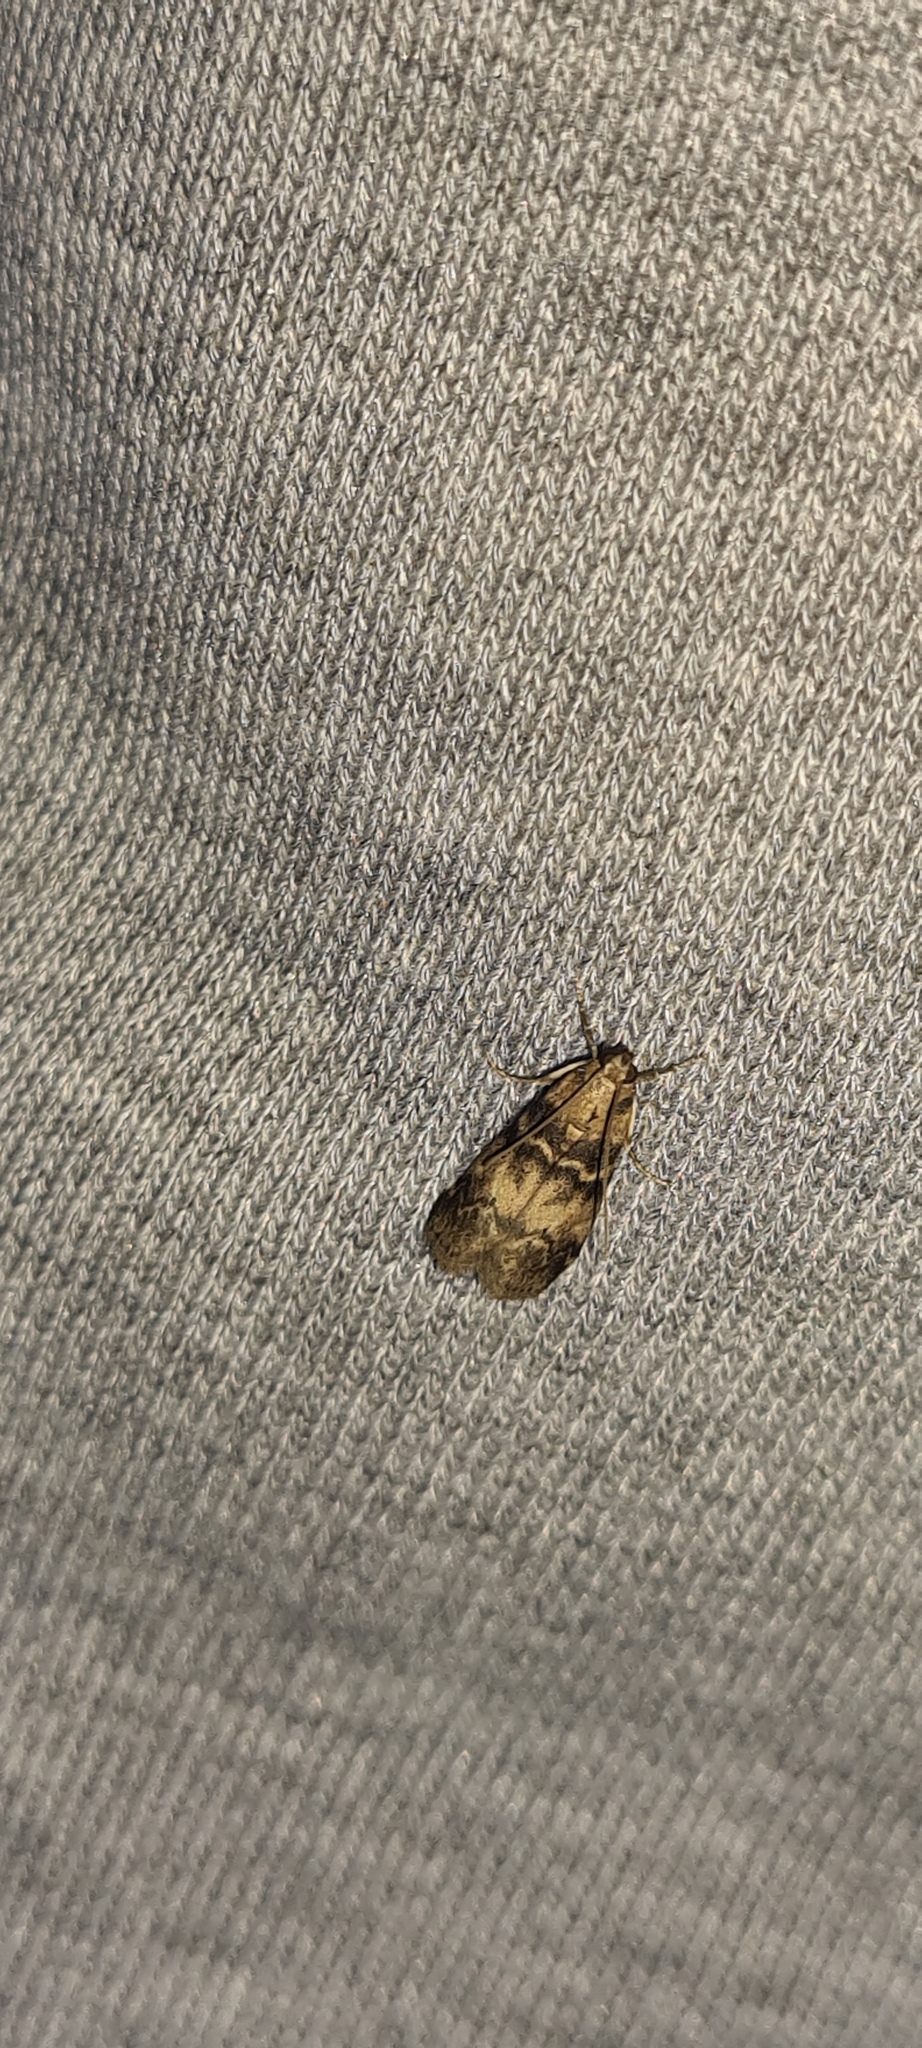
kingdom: Animalia
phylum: Arthropoda
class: Insecta
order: Lepidoptera
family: Pyralidae
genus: Euzophera
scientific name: Euzophera pinguis
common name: Ash-bark knot-horn
